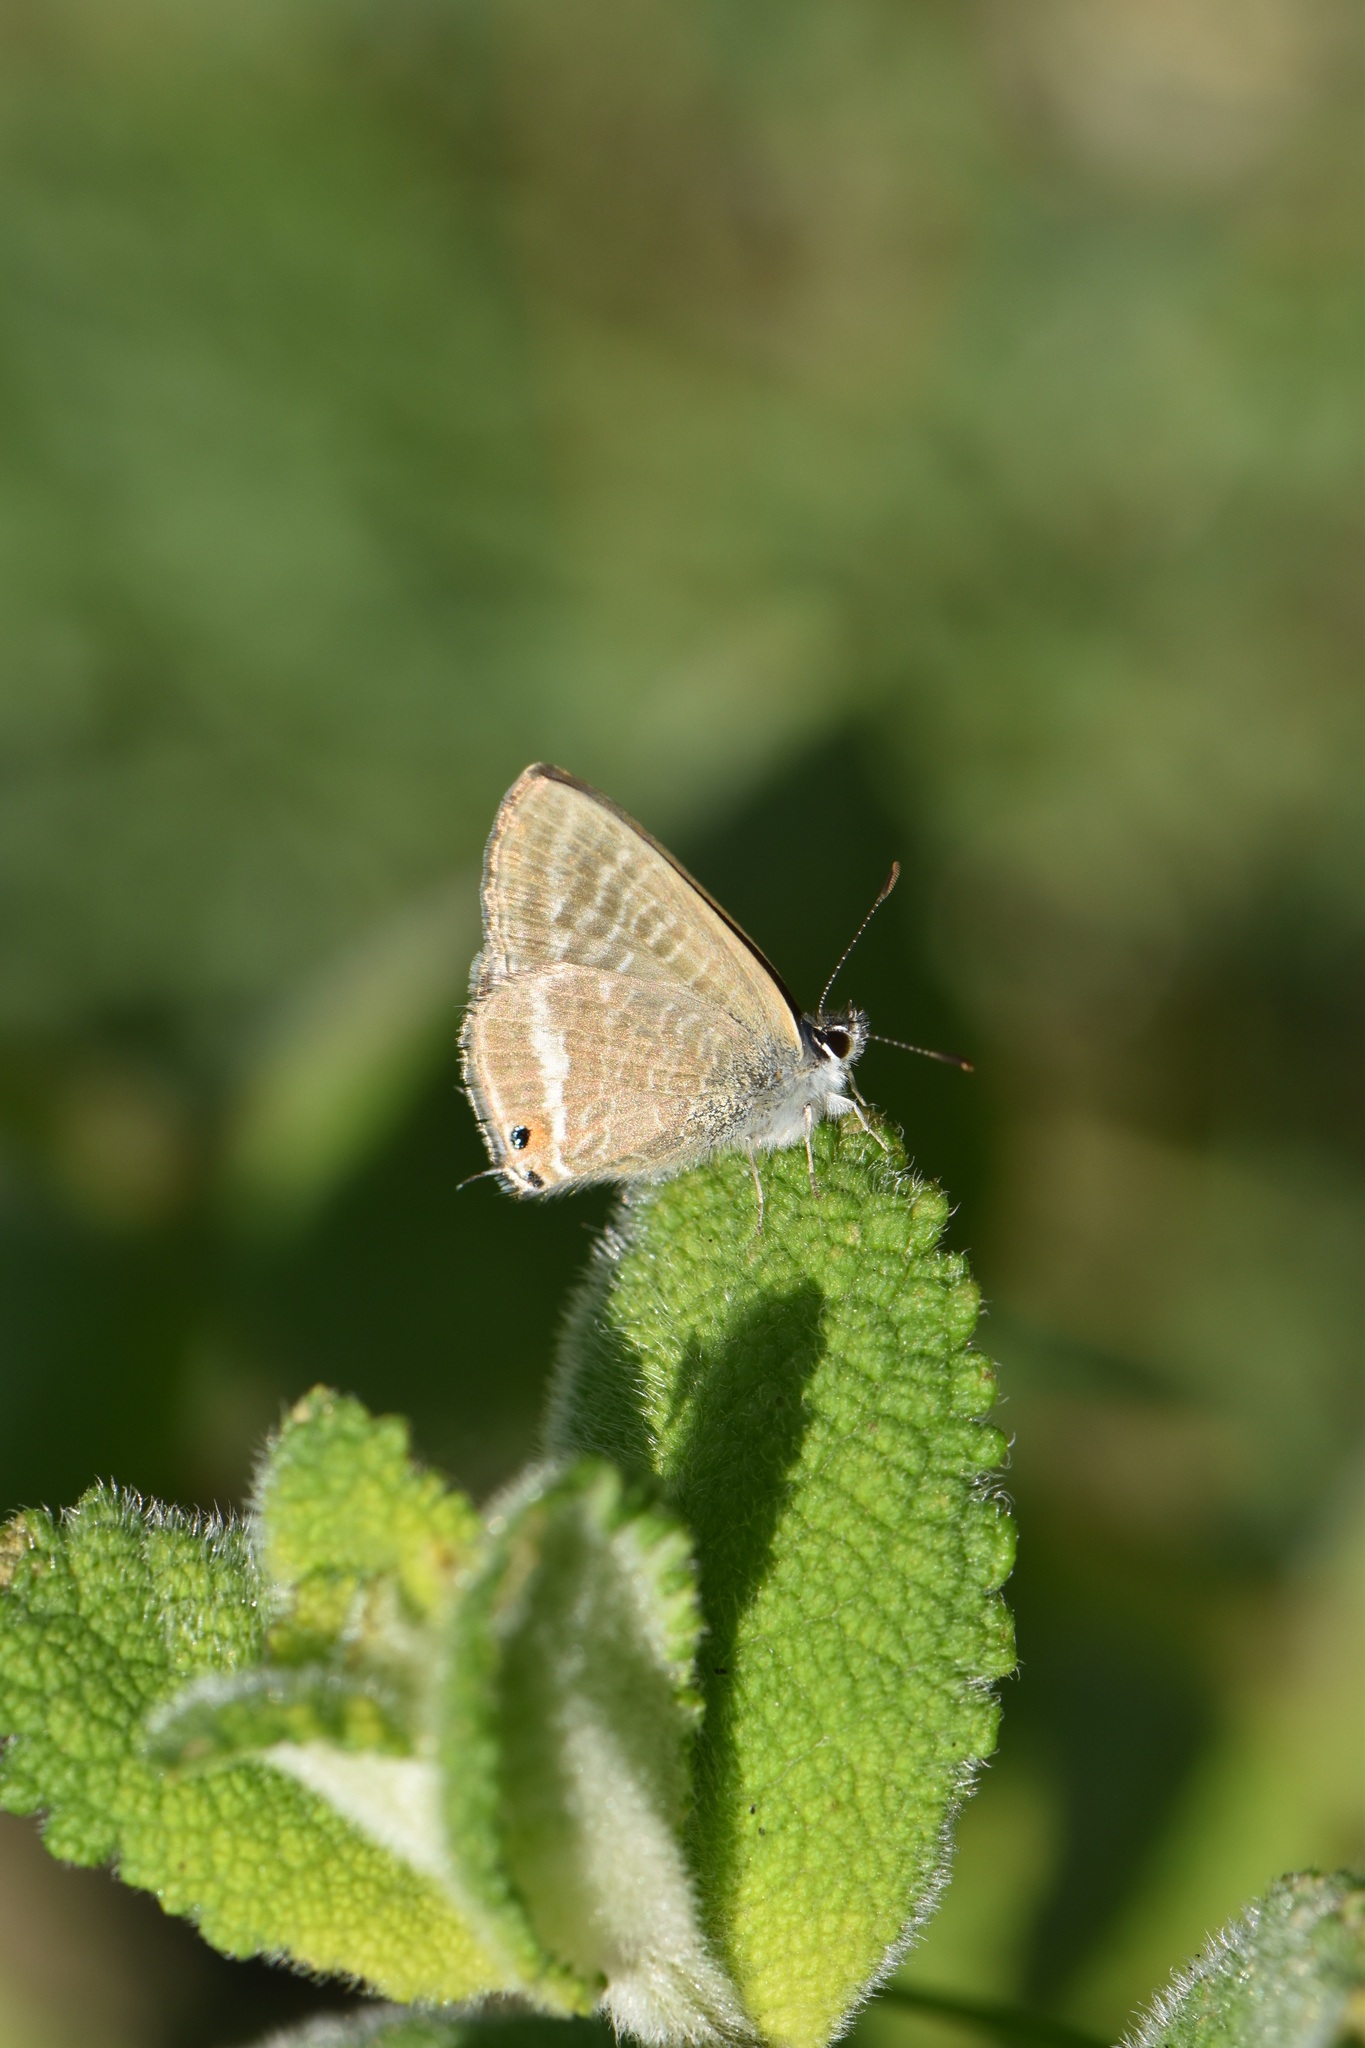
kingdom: Animalia
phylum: Arthropoda
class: Insecta
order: Lepidoptera
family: Lycaenidae
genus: Lampides
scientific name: Lampides boeticus
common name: Long-tailed blue
